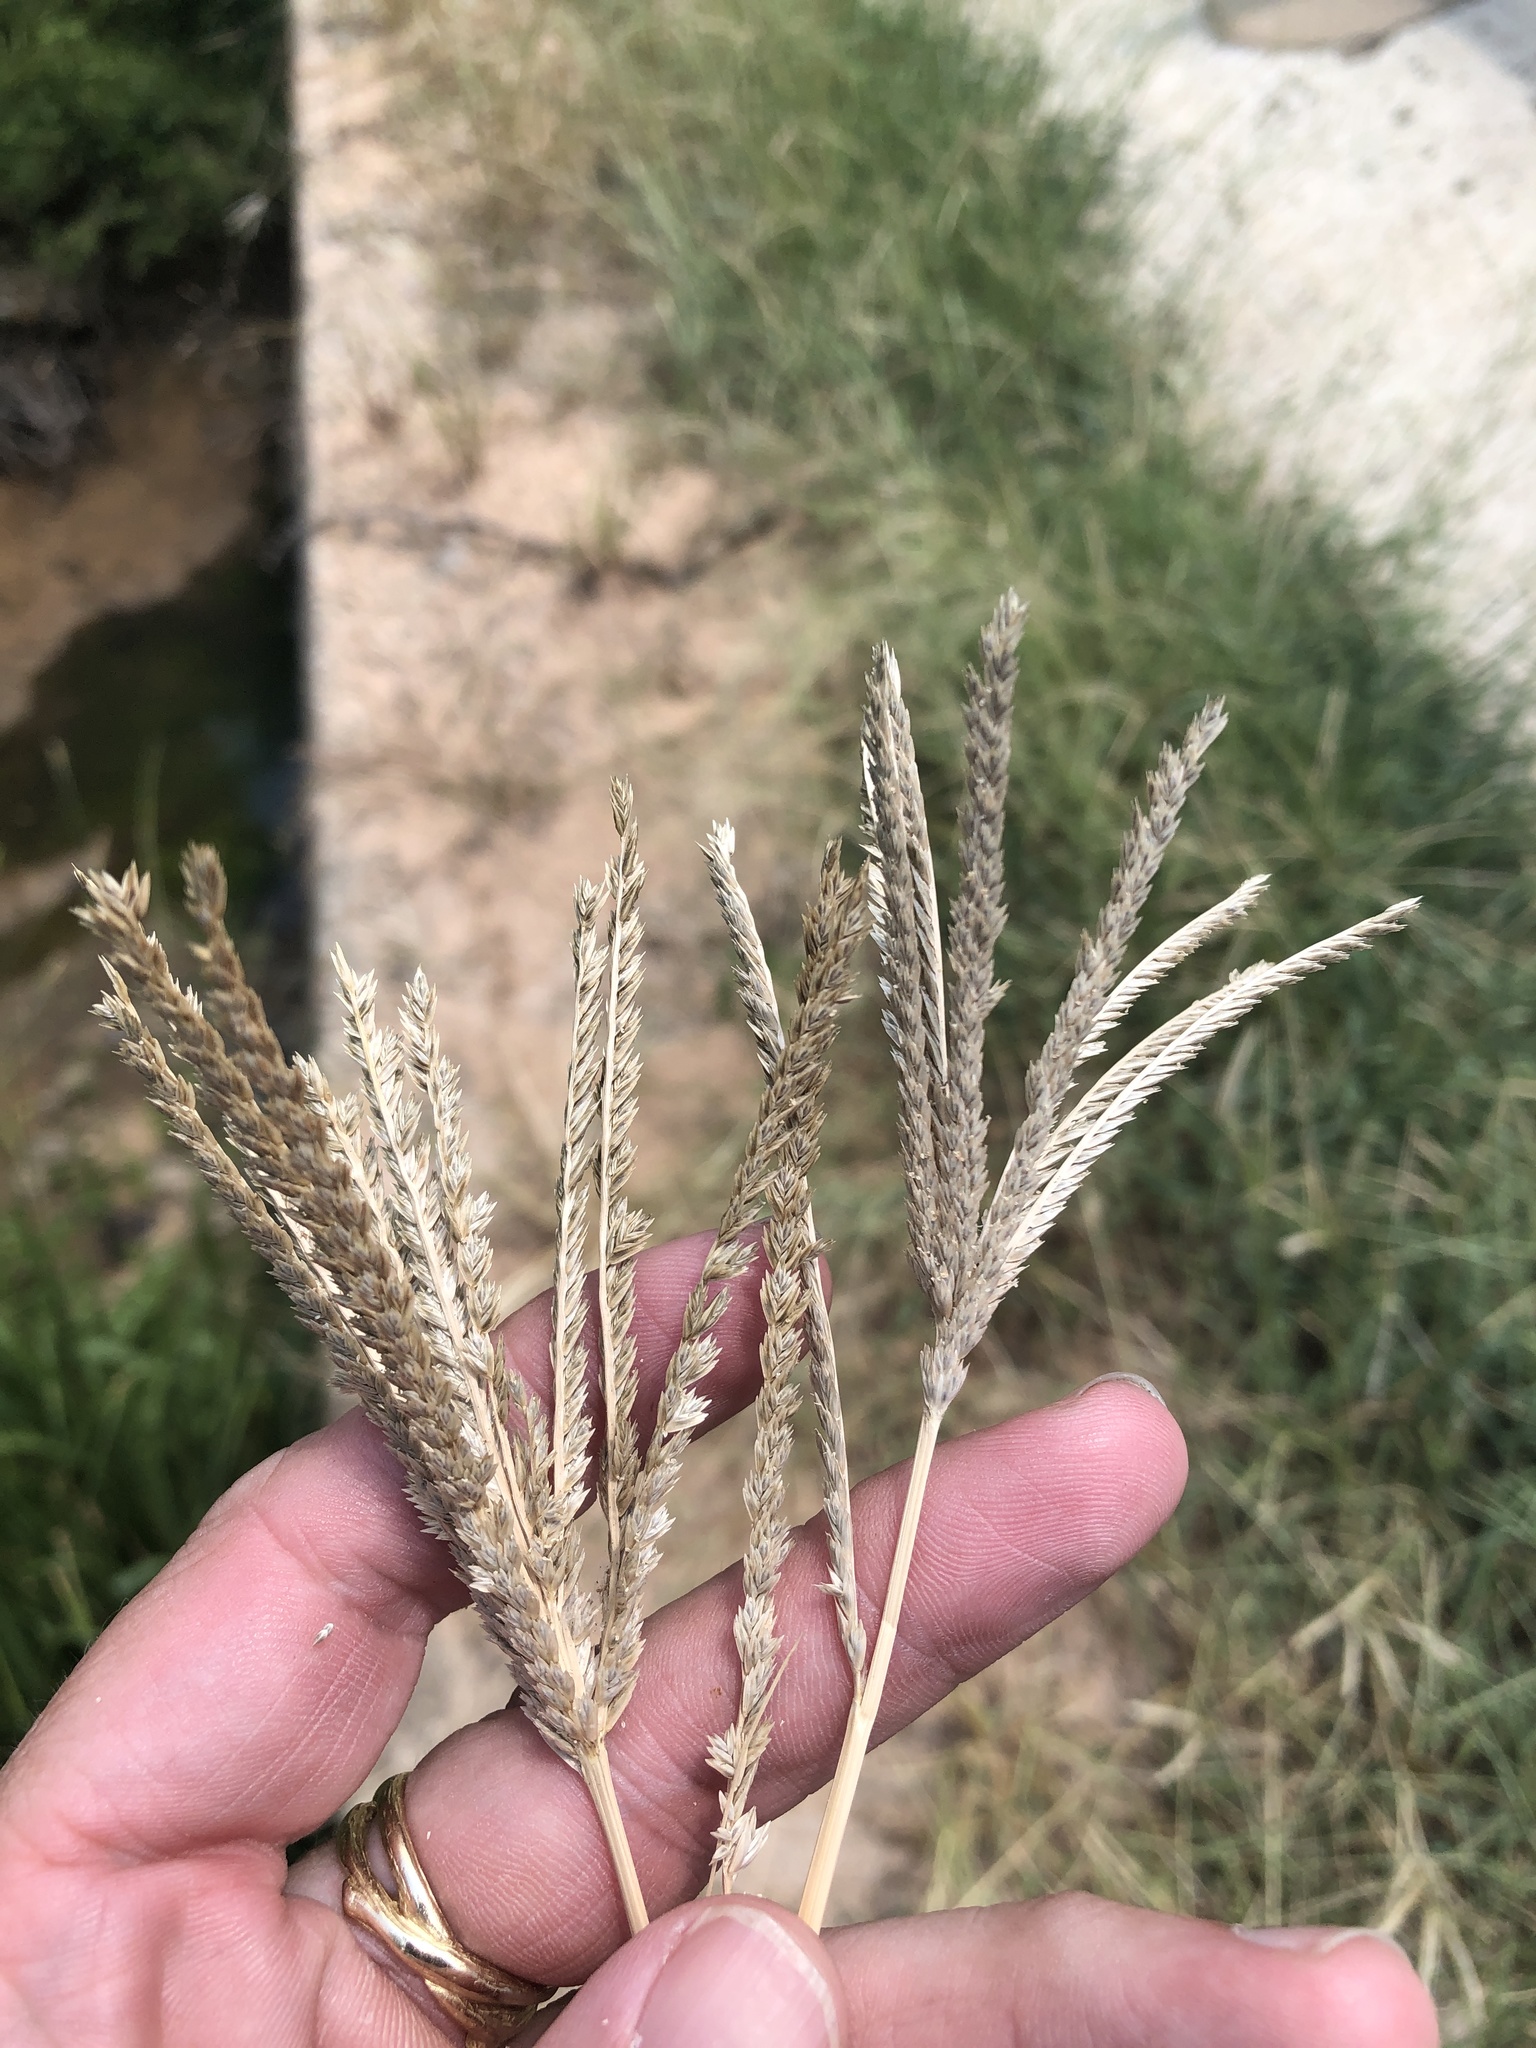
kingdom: Plantae
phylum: Tracheophyta
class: Liliopsida
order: Poales
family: Poaceae
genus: Eleusine
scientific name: Eleusine indica
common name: Yard-grass
